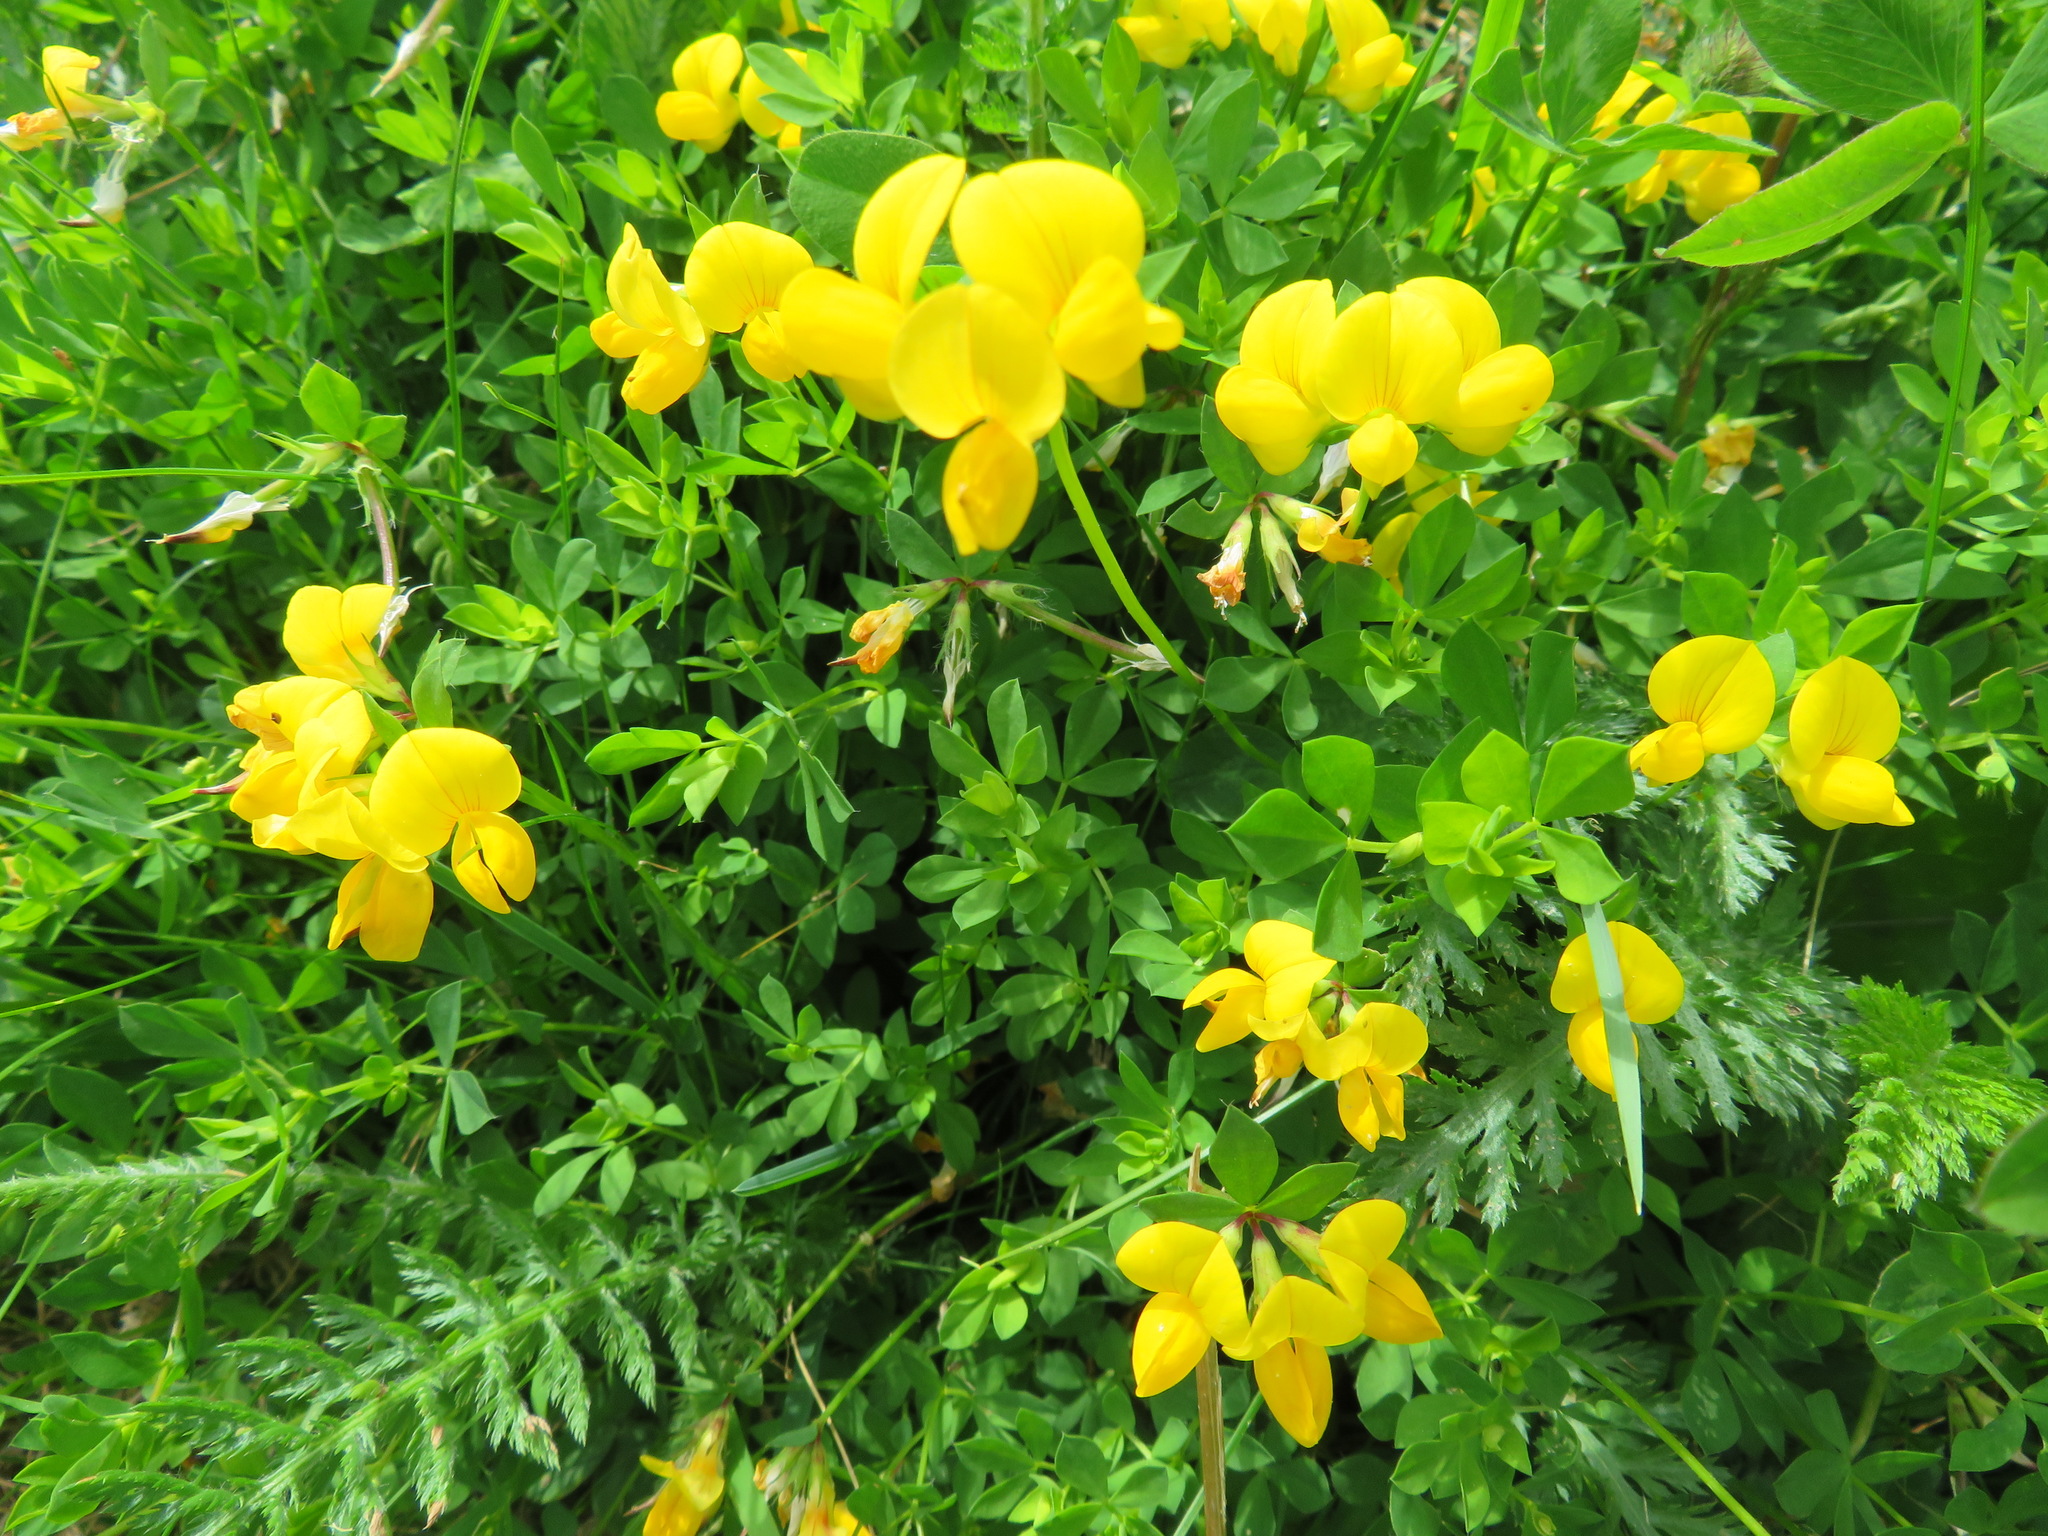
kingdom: Plantae
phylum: Tracheophyta
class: Magnoliopsida
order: Fabales
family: Fabaceae
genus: Lotus
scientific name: Lotus corniculatus
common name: Common bird's-foot-trefoil
